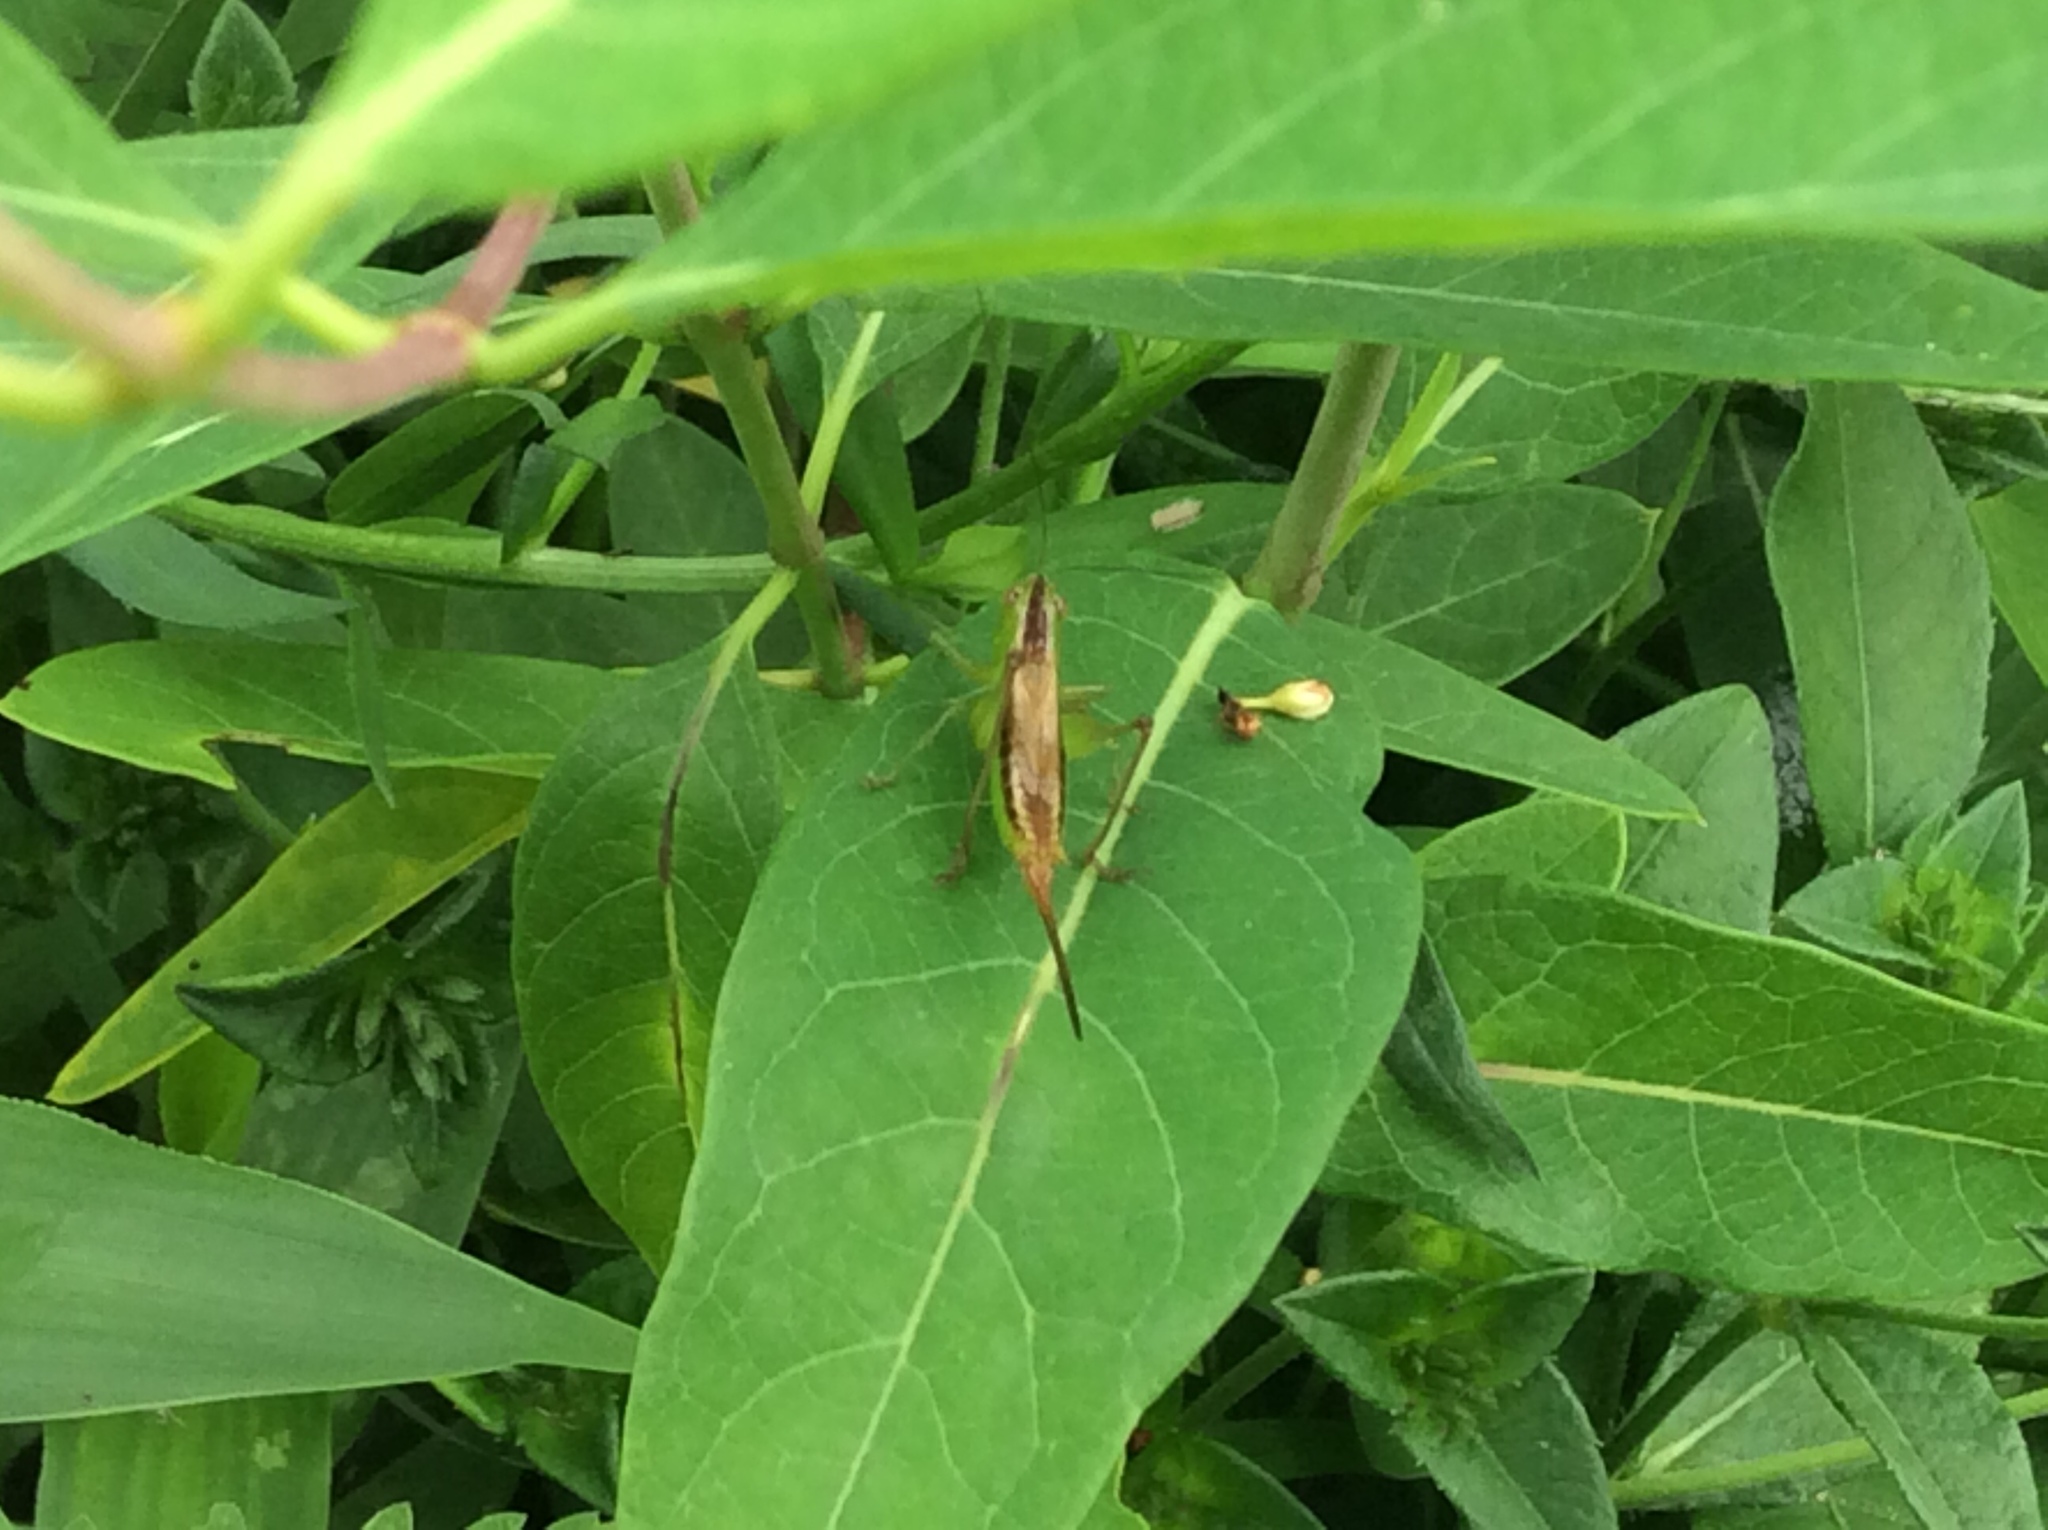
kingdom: Animalia
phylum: Arthropoda
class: Insecta
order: Orthoptera
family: Tettigoniidae
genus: Conocephalus
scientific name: Conocephalus brevipennis
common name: Short-winged meadow katydid
